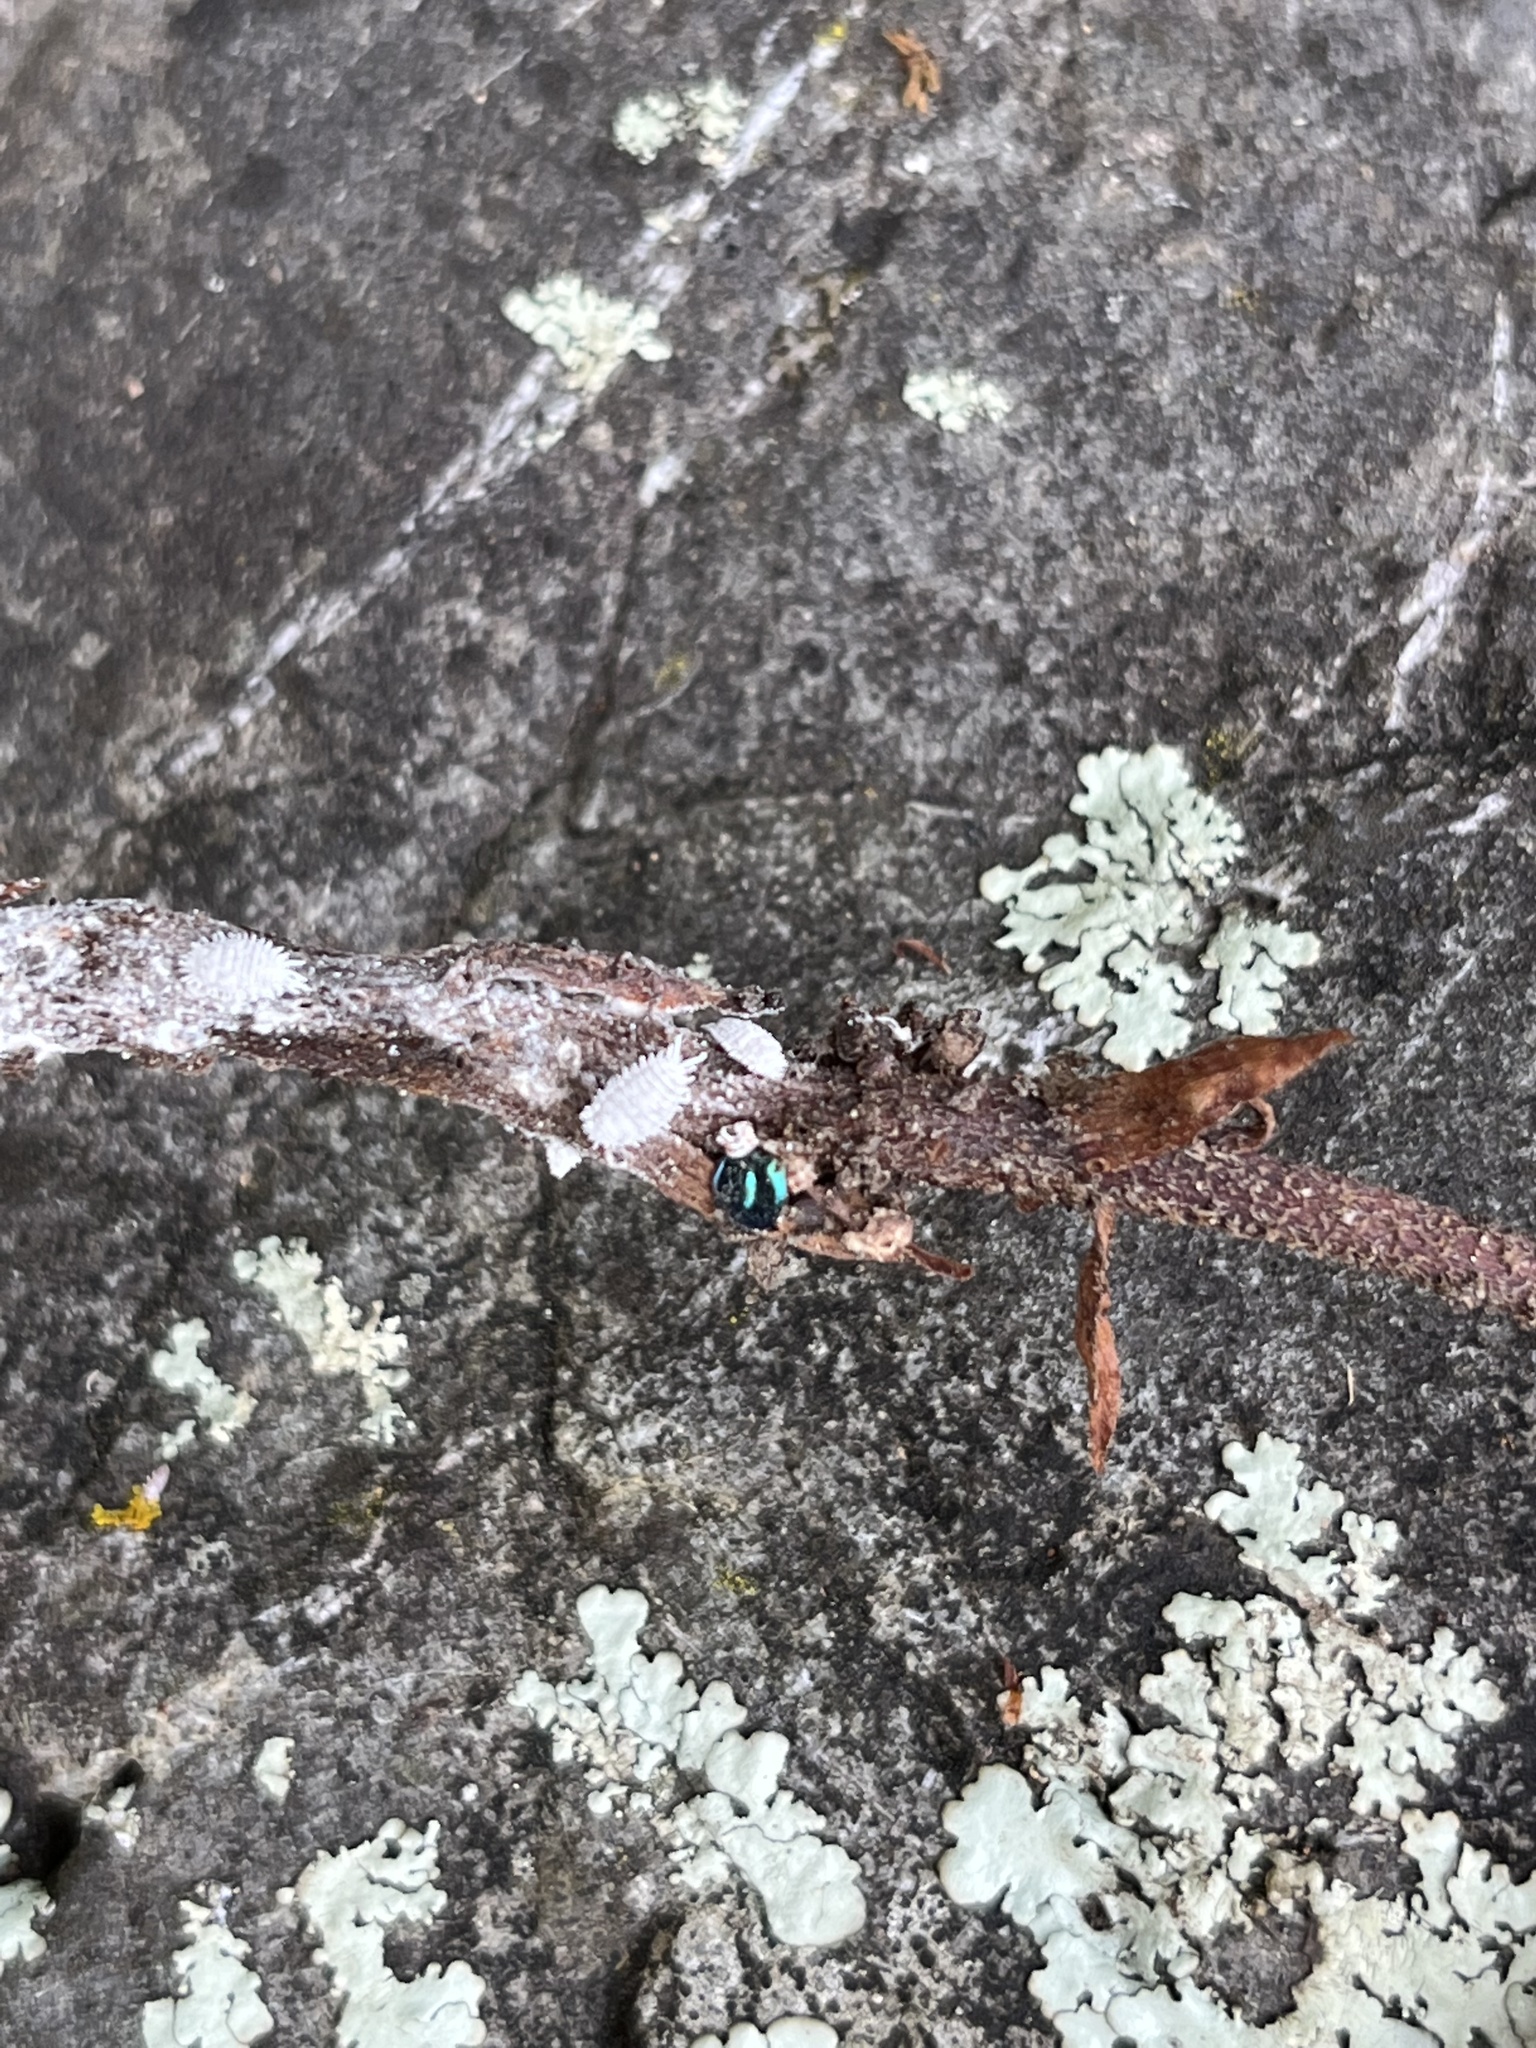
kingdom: Animalia
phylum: Arthropoda
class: Insecta
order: Coleoptera
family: Coccinellidae
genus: Halmus
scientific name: Halmus chalybeus
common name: Steel blue ladybird beetle
